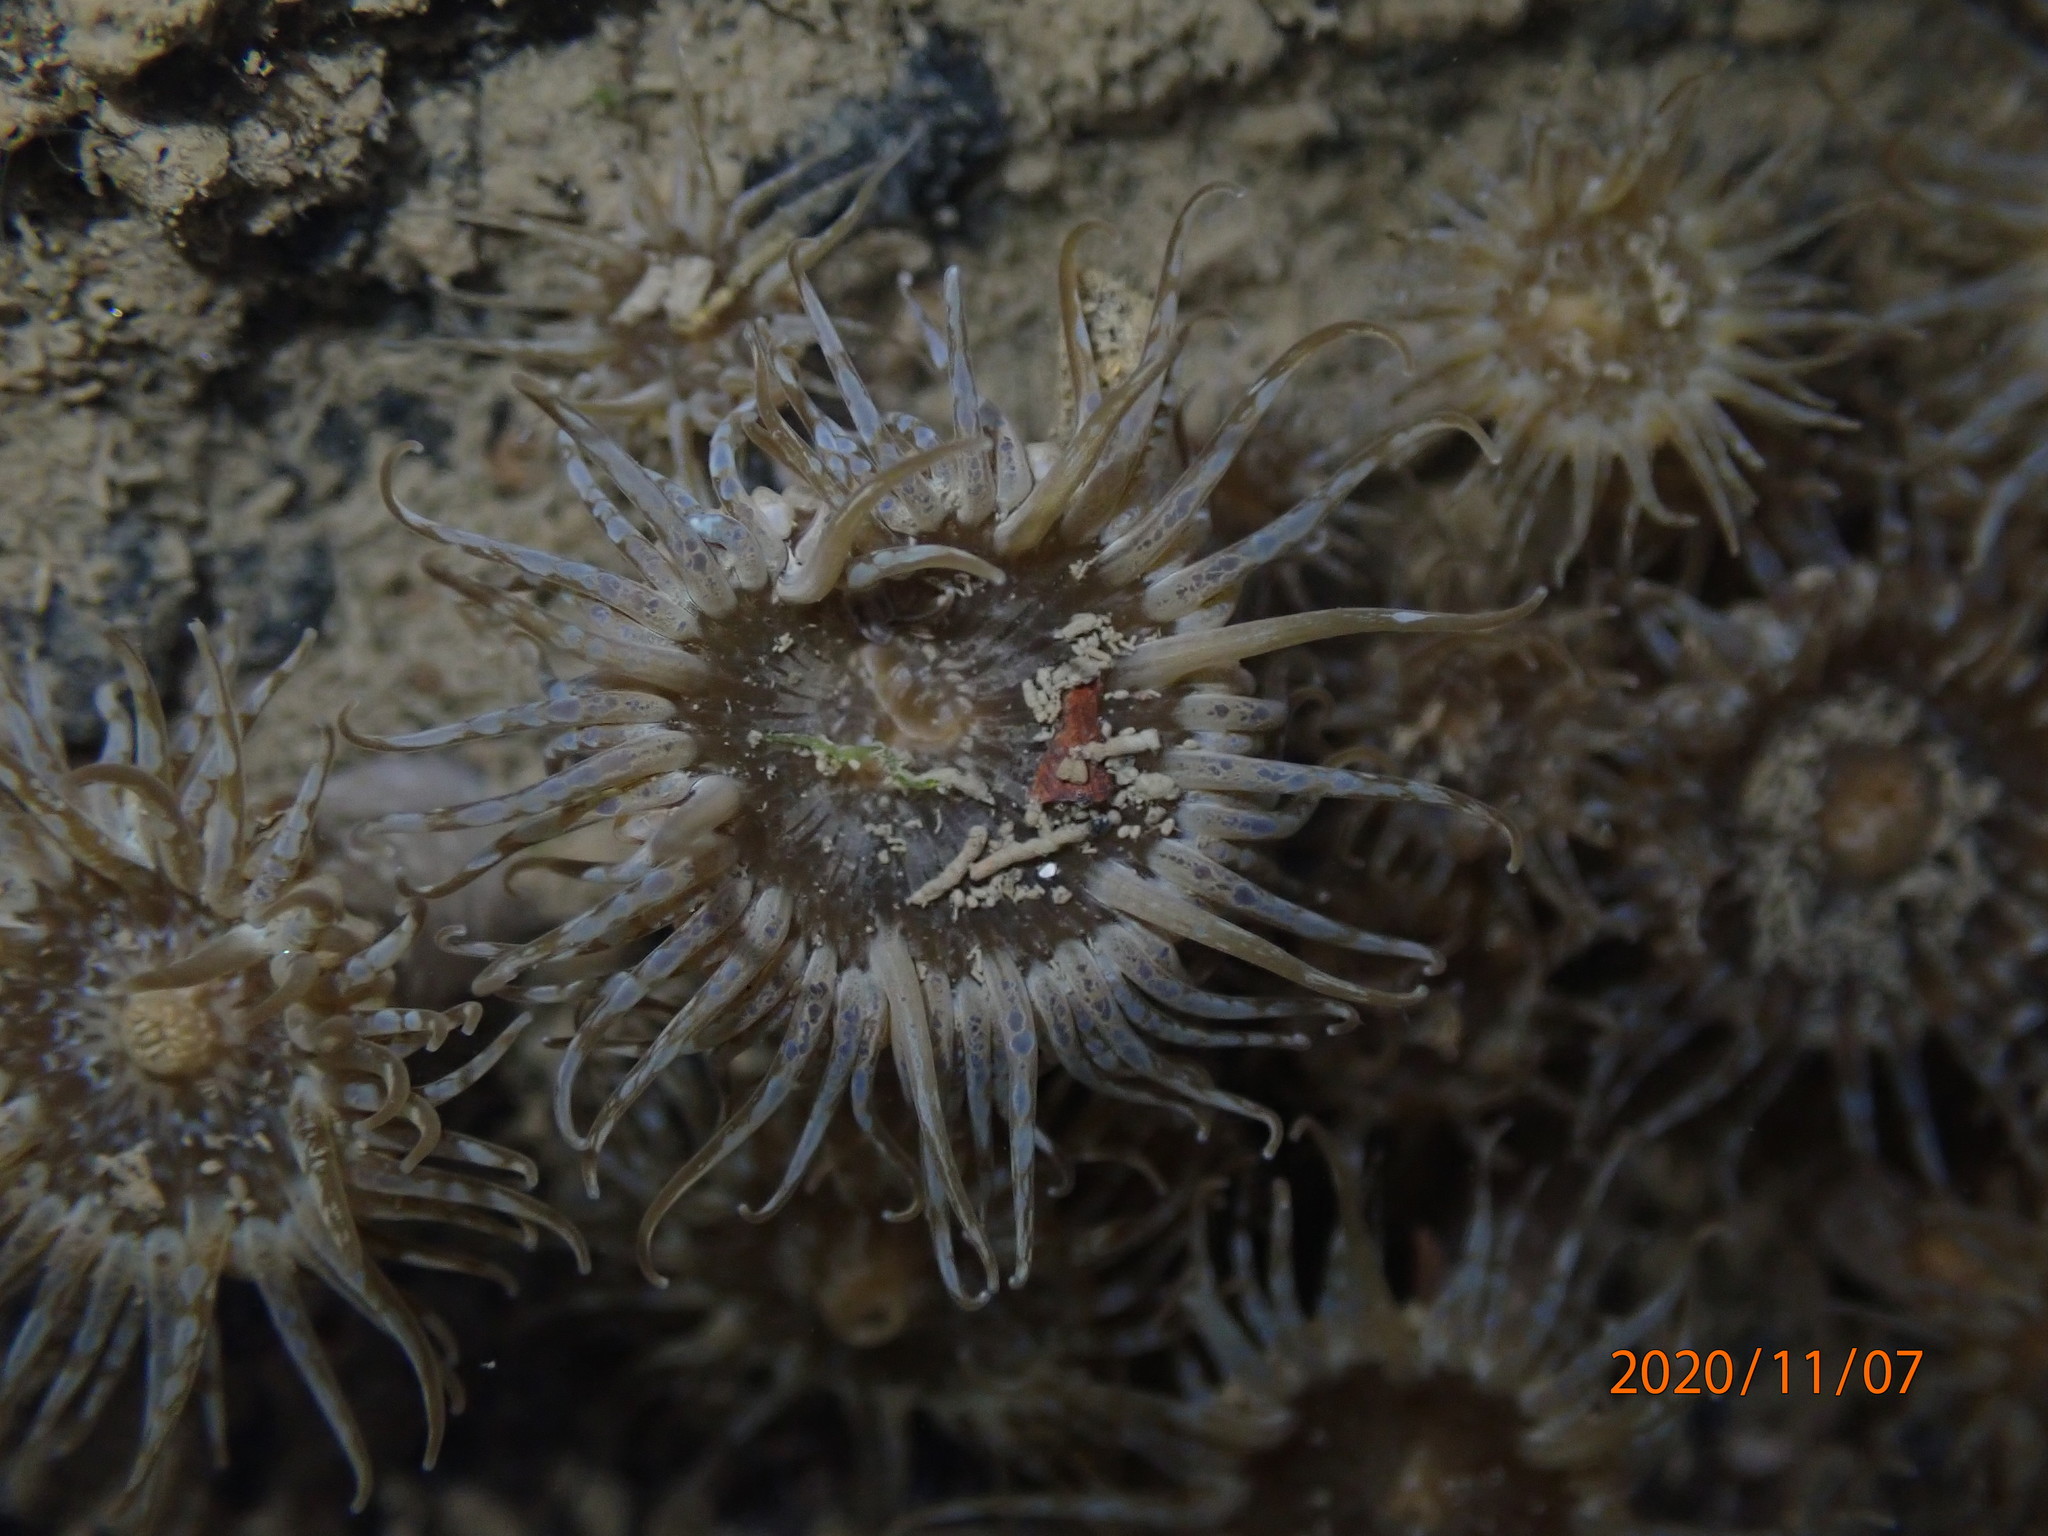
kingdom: Animalia
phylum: Cnidaria
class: Anthozoa
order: Actiniaria
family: Actiniidae
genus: Anthopleura
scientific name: Anthopleura hermaphroditica
